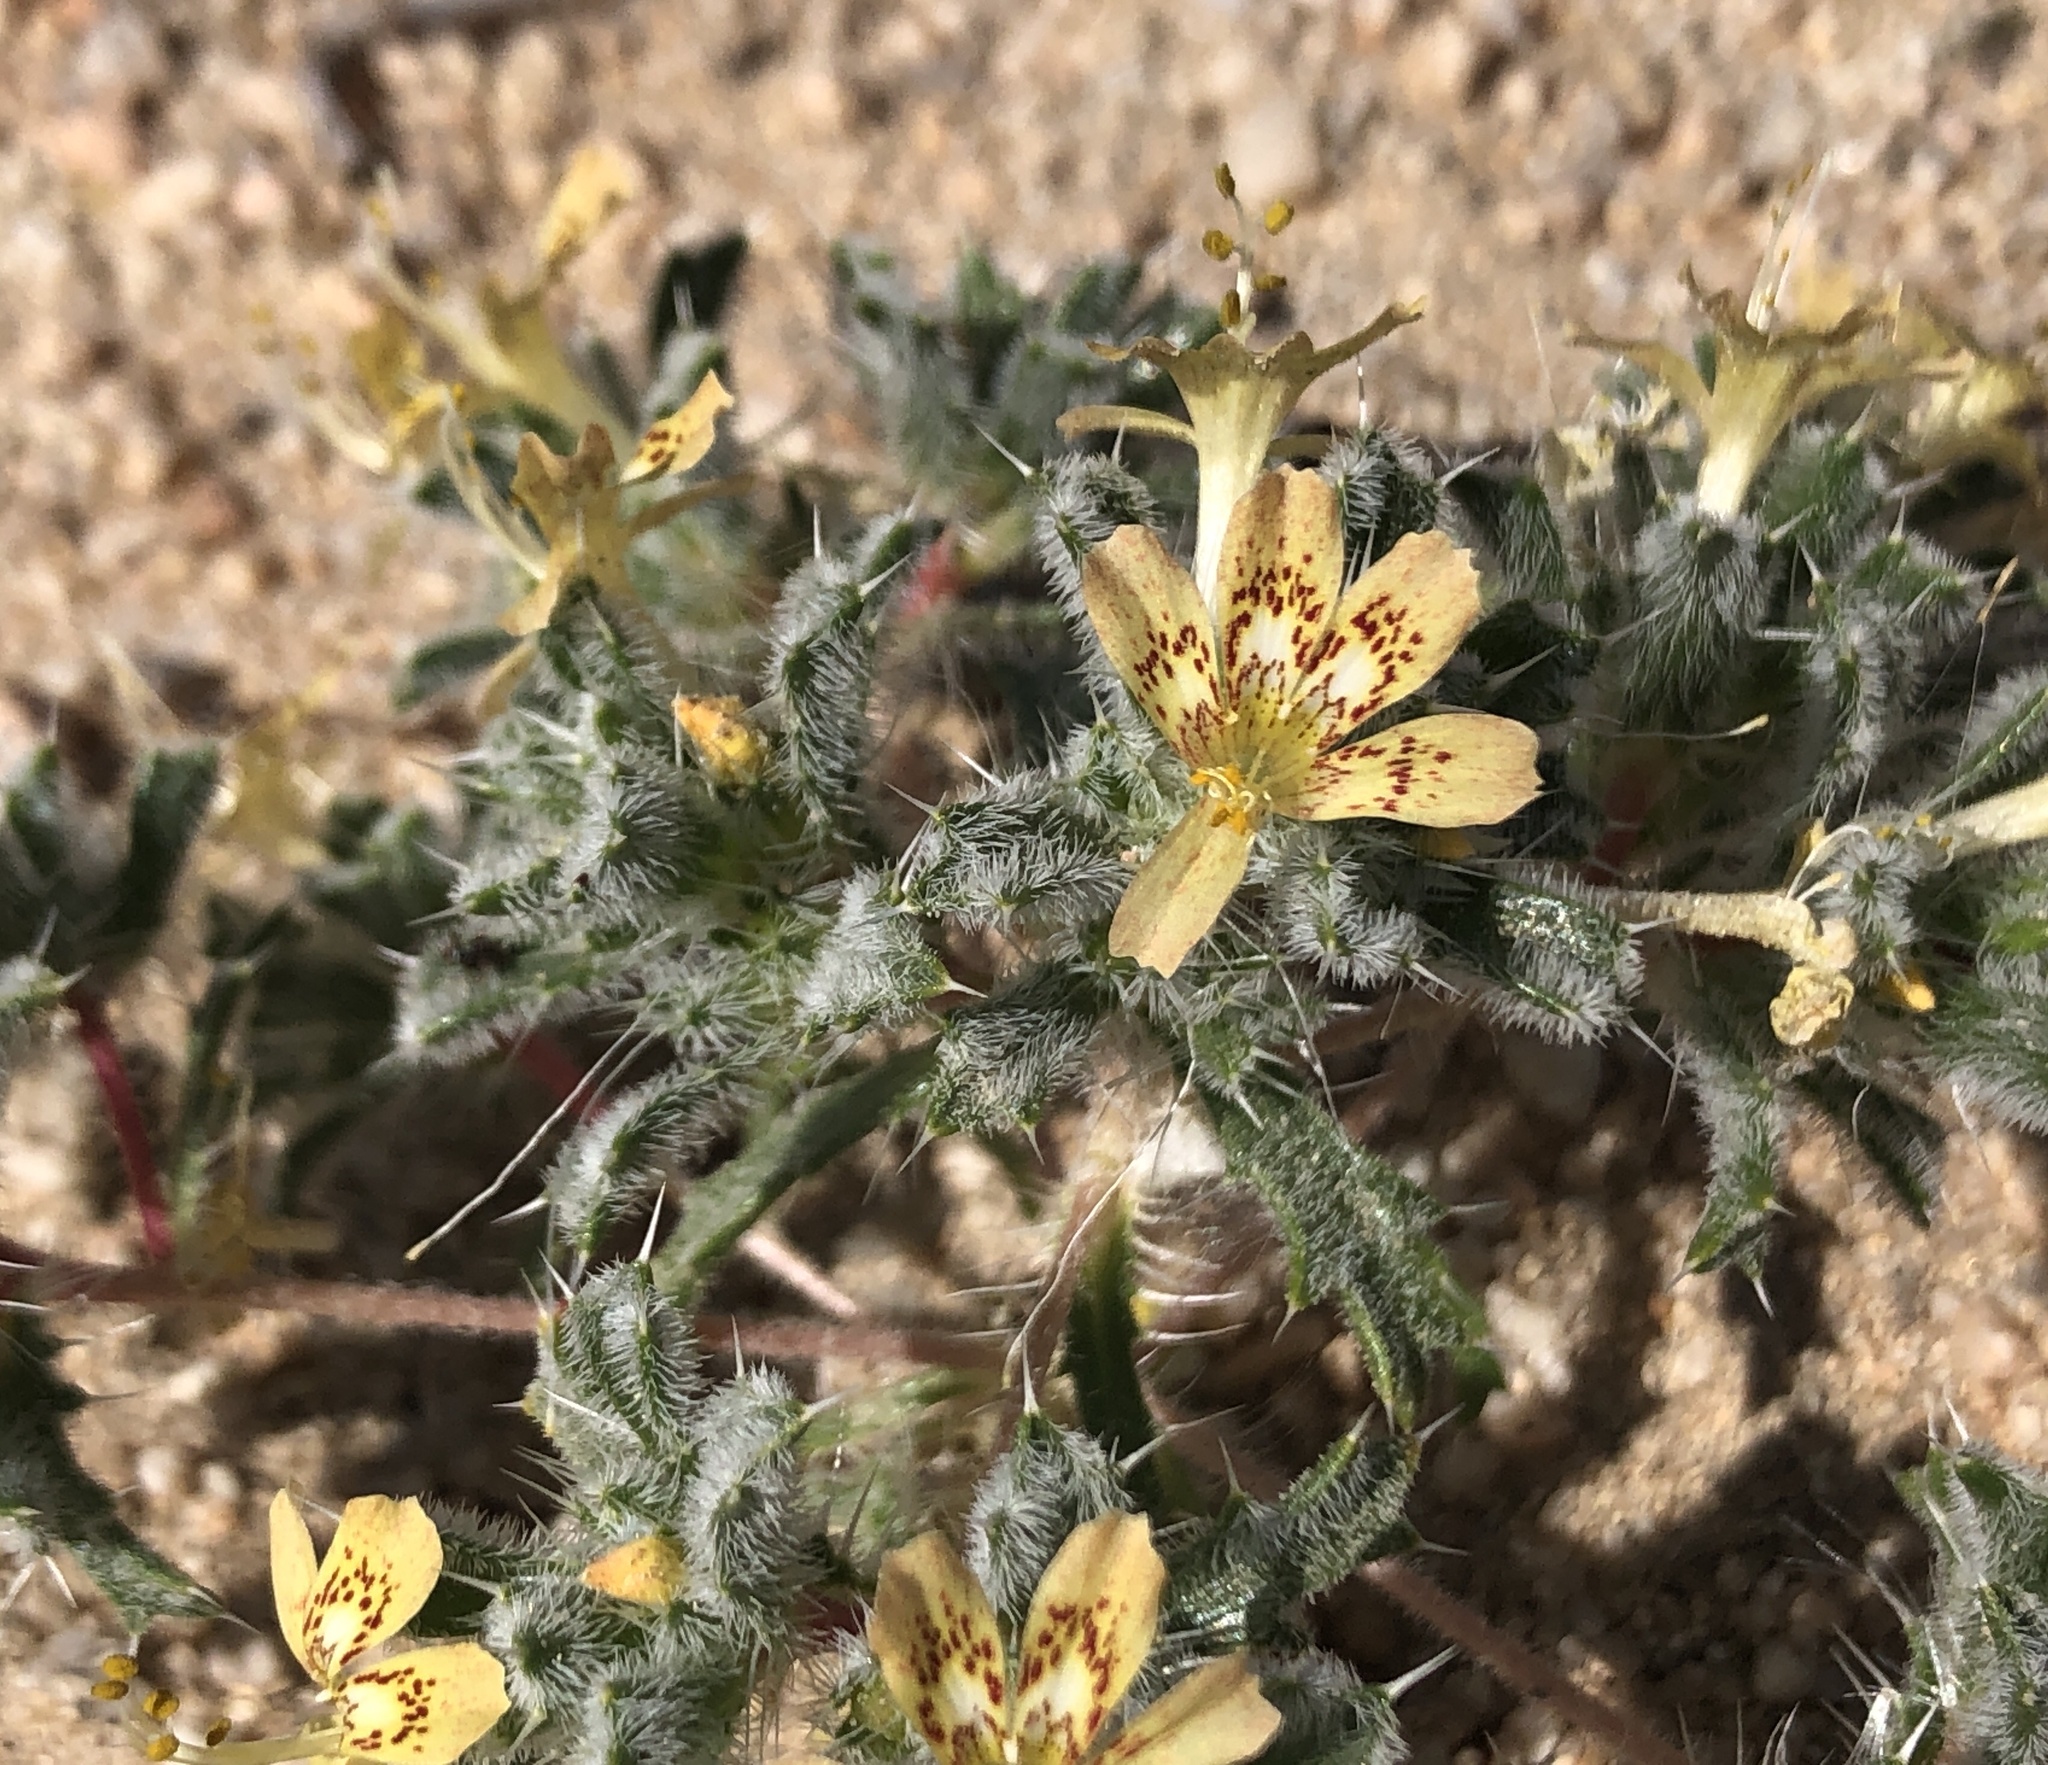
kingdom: Plantae
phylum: Tracheophyta
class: Magnoliopsida
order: Ericales
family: Polemoniaceae
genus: Loeseliastrum
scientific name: Loeseliastrum matthewsii
